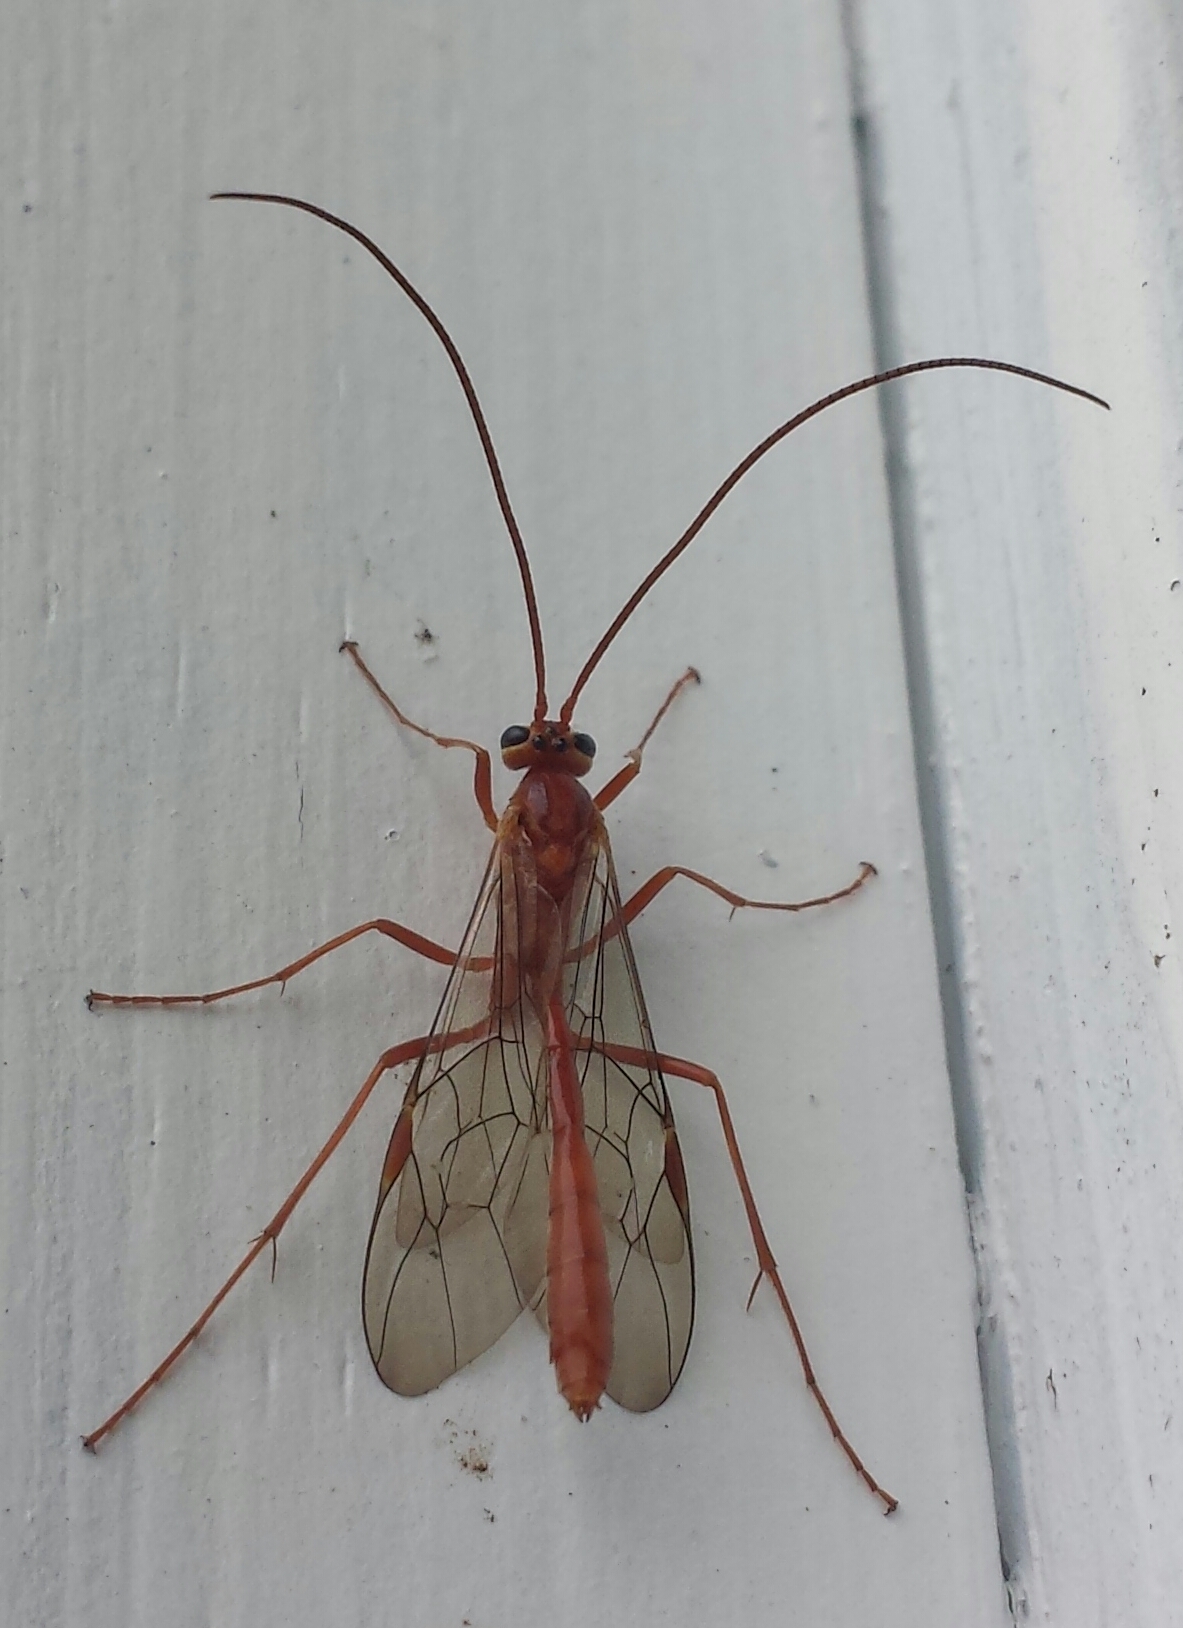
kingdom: Animalia
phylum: Arthropoda
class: Insecta
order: Hymenoptera
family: Ichneumonidae
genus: Ophion
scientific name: Ophion
